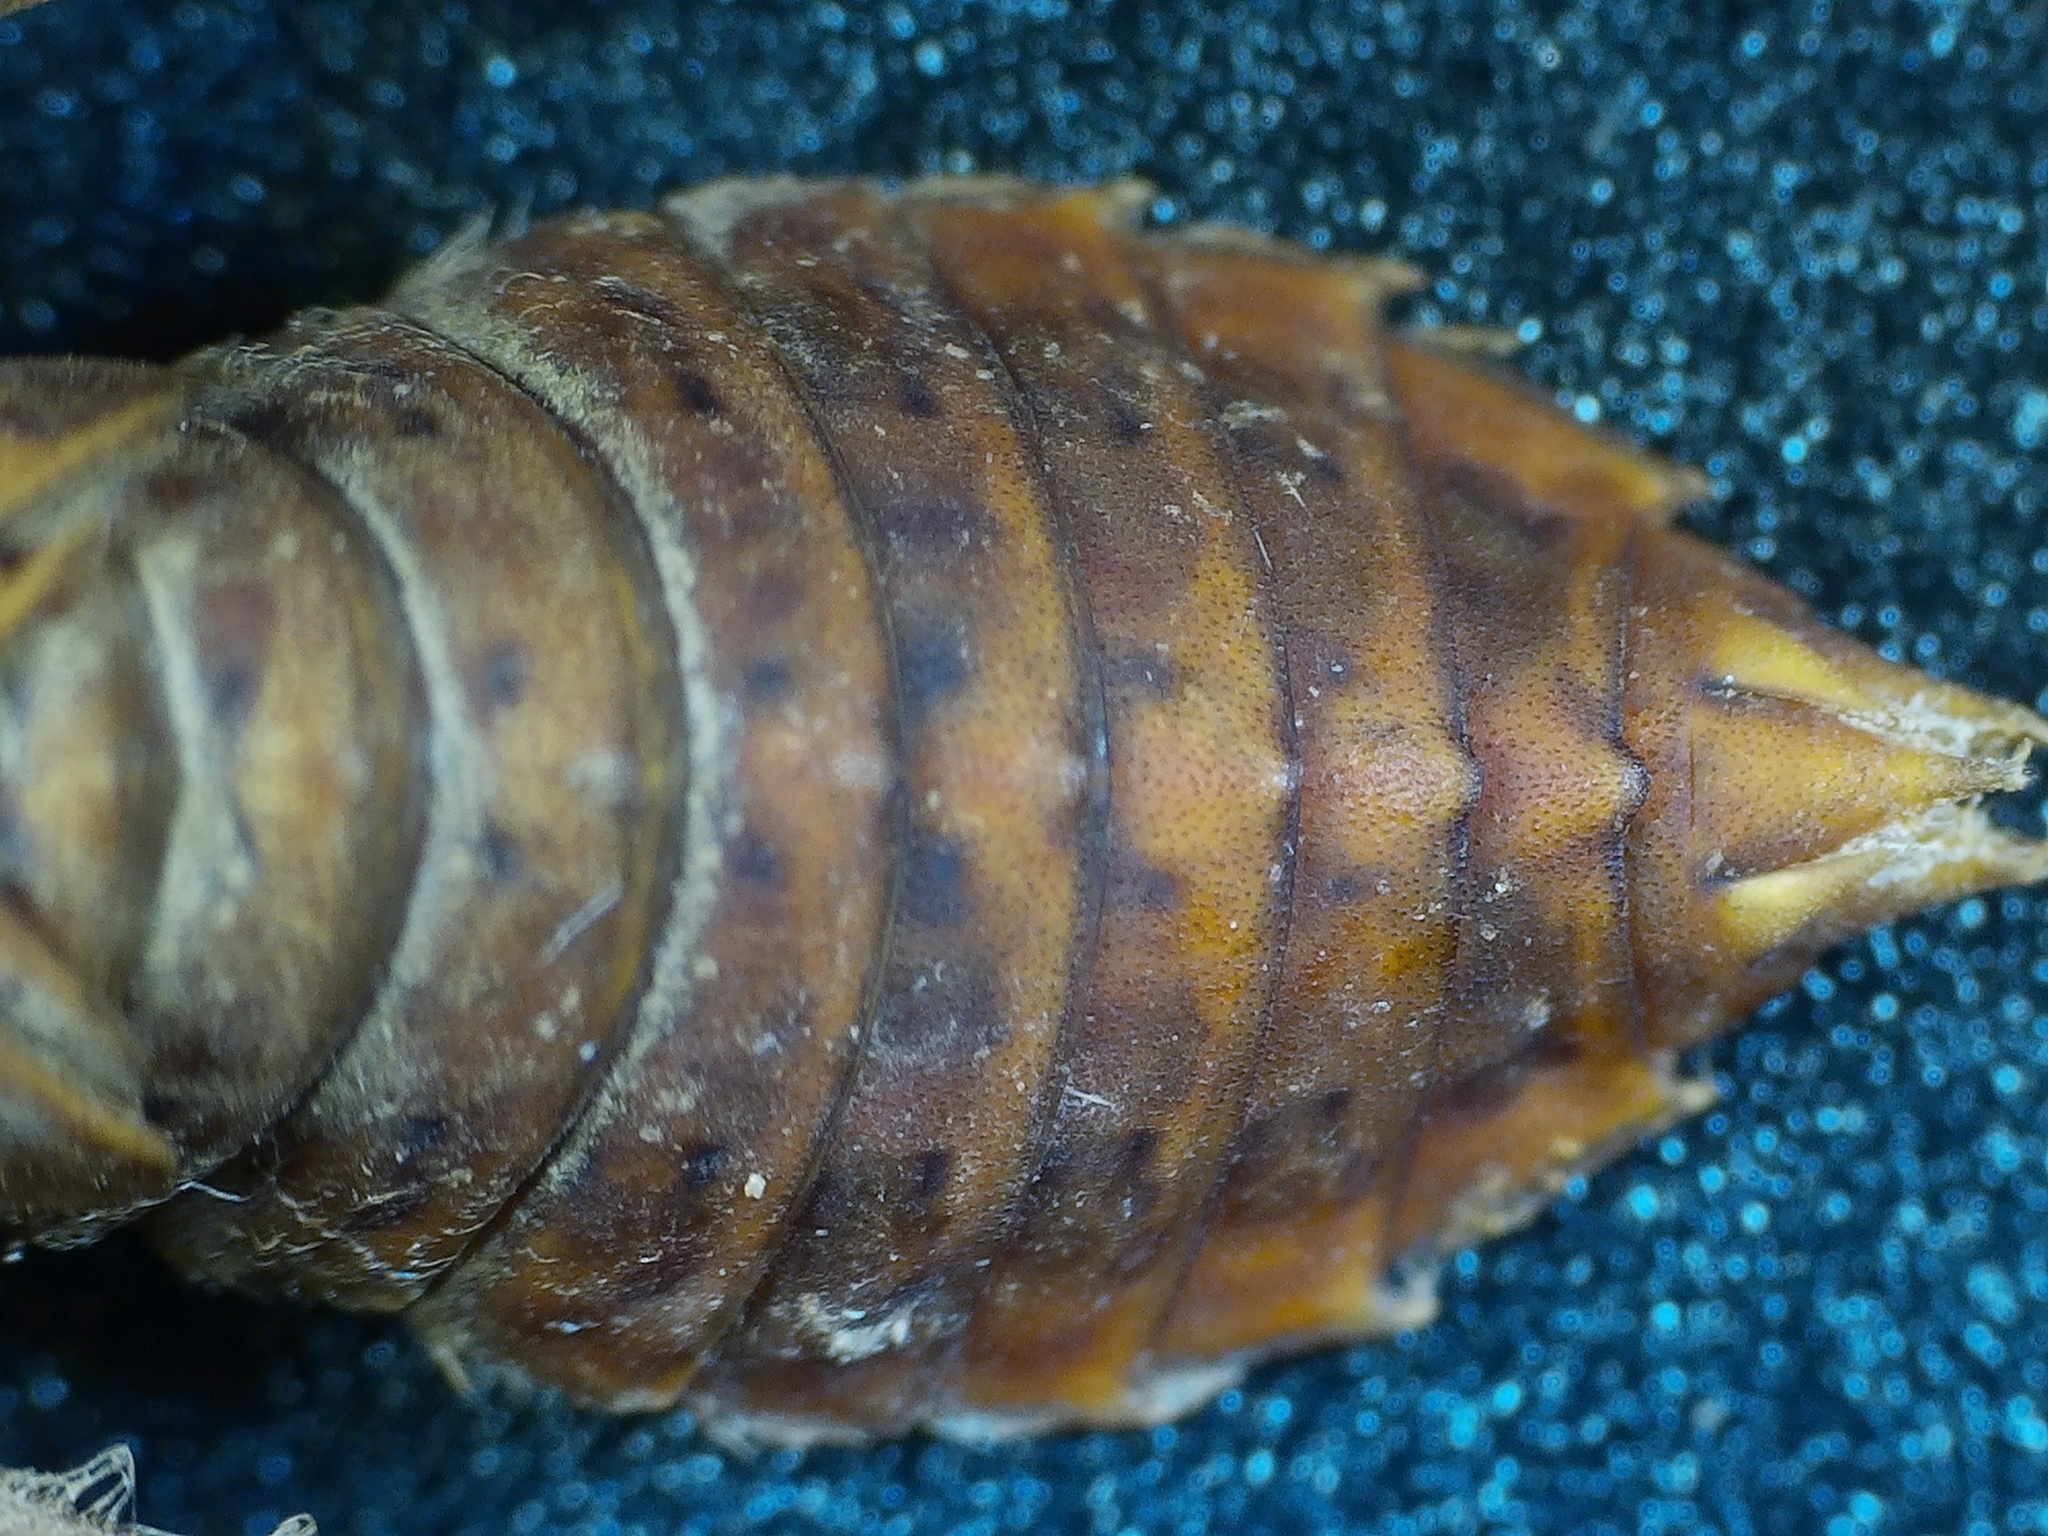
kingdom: Animalia
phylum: Arthropoda
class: Insecta
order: Odonata
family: Gomphidae
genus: Ophiogomphus
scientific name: Ophiogomphus anomalus
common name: Extra-striped snaketail
